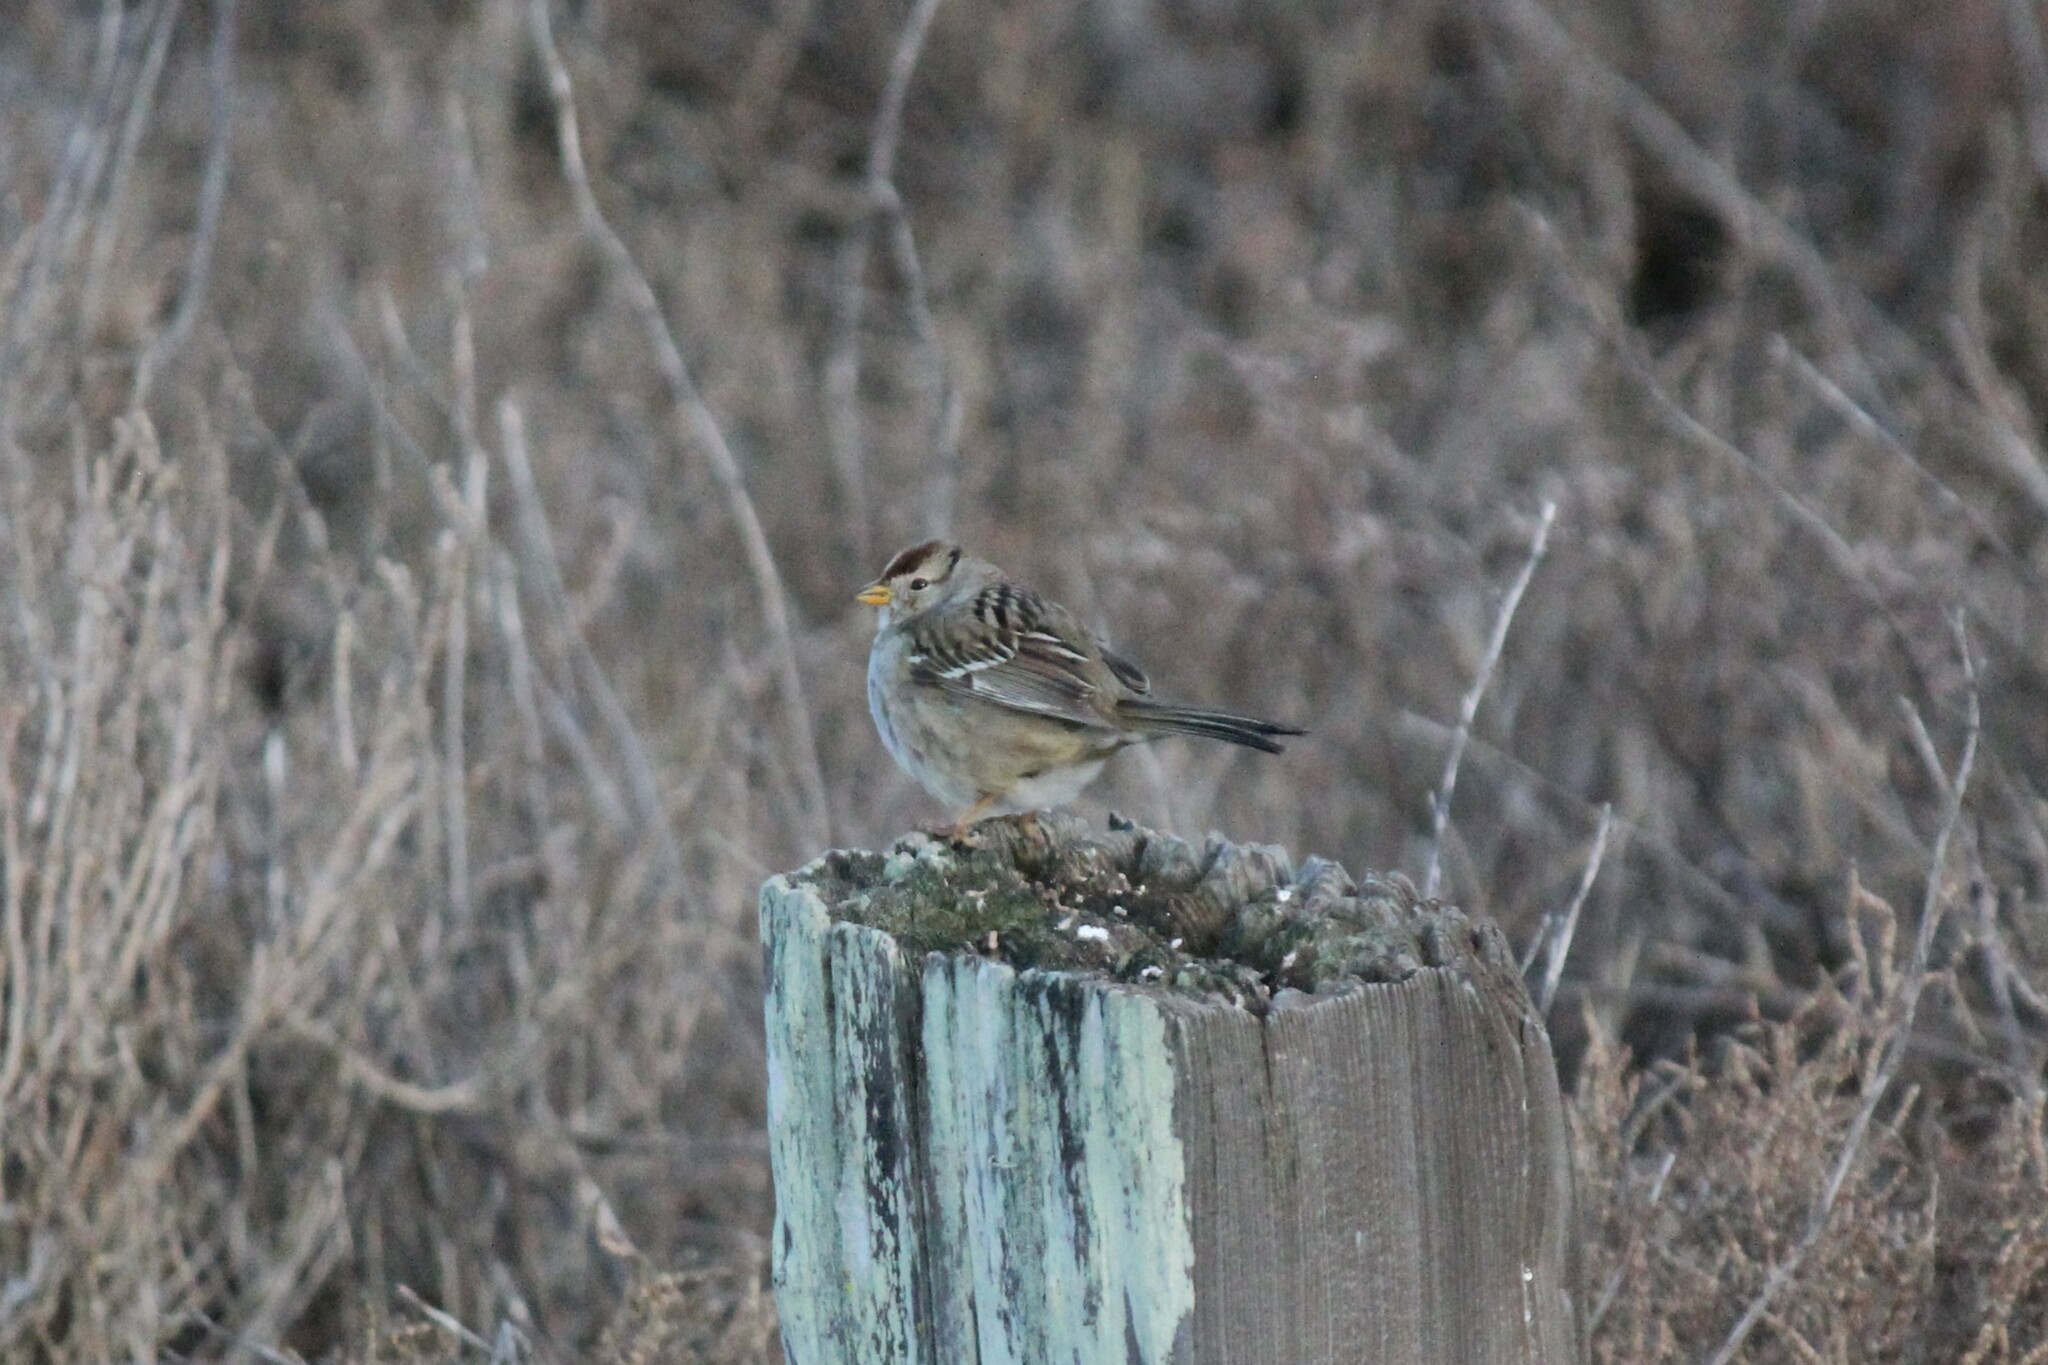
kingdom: Animalia
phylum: Chordata
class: Aves
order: Passeriformes
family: Passerellidae
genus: Zonotrichia
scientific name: Zonotrichia leucophrys
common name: White-crowned sparrow
